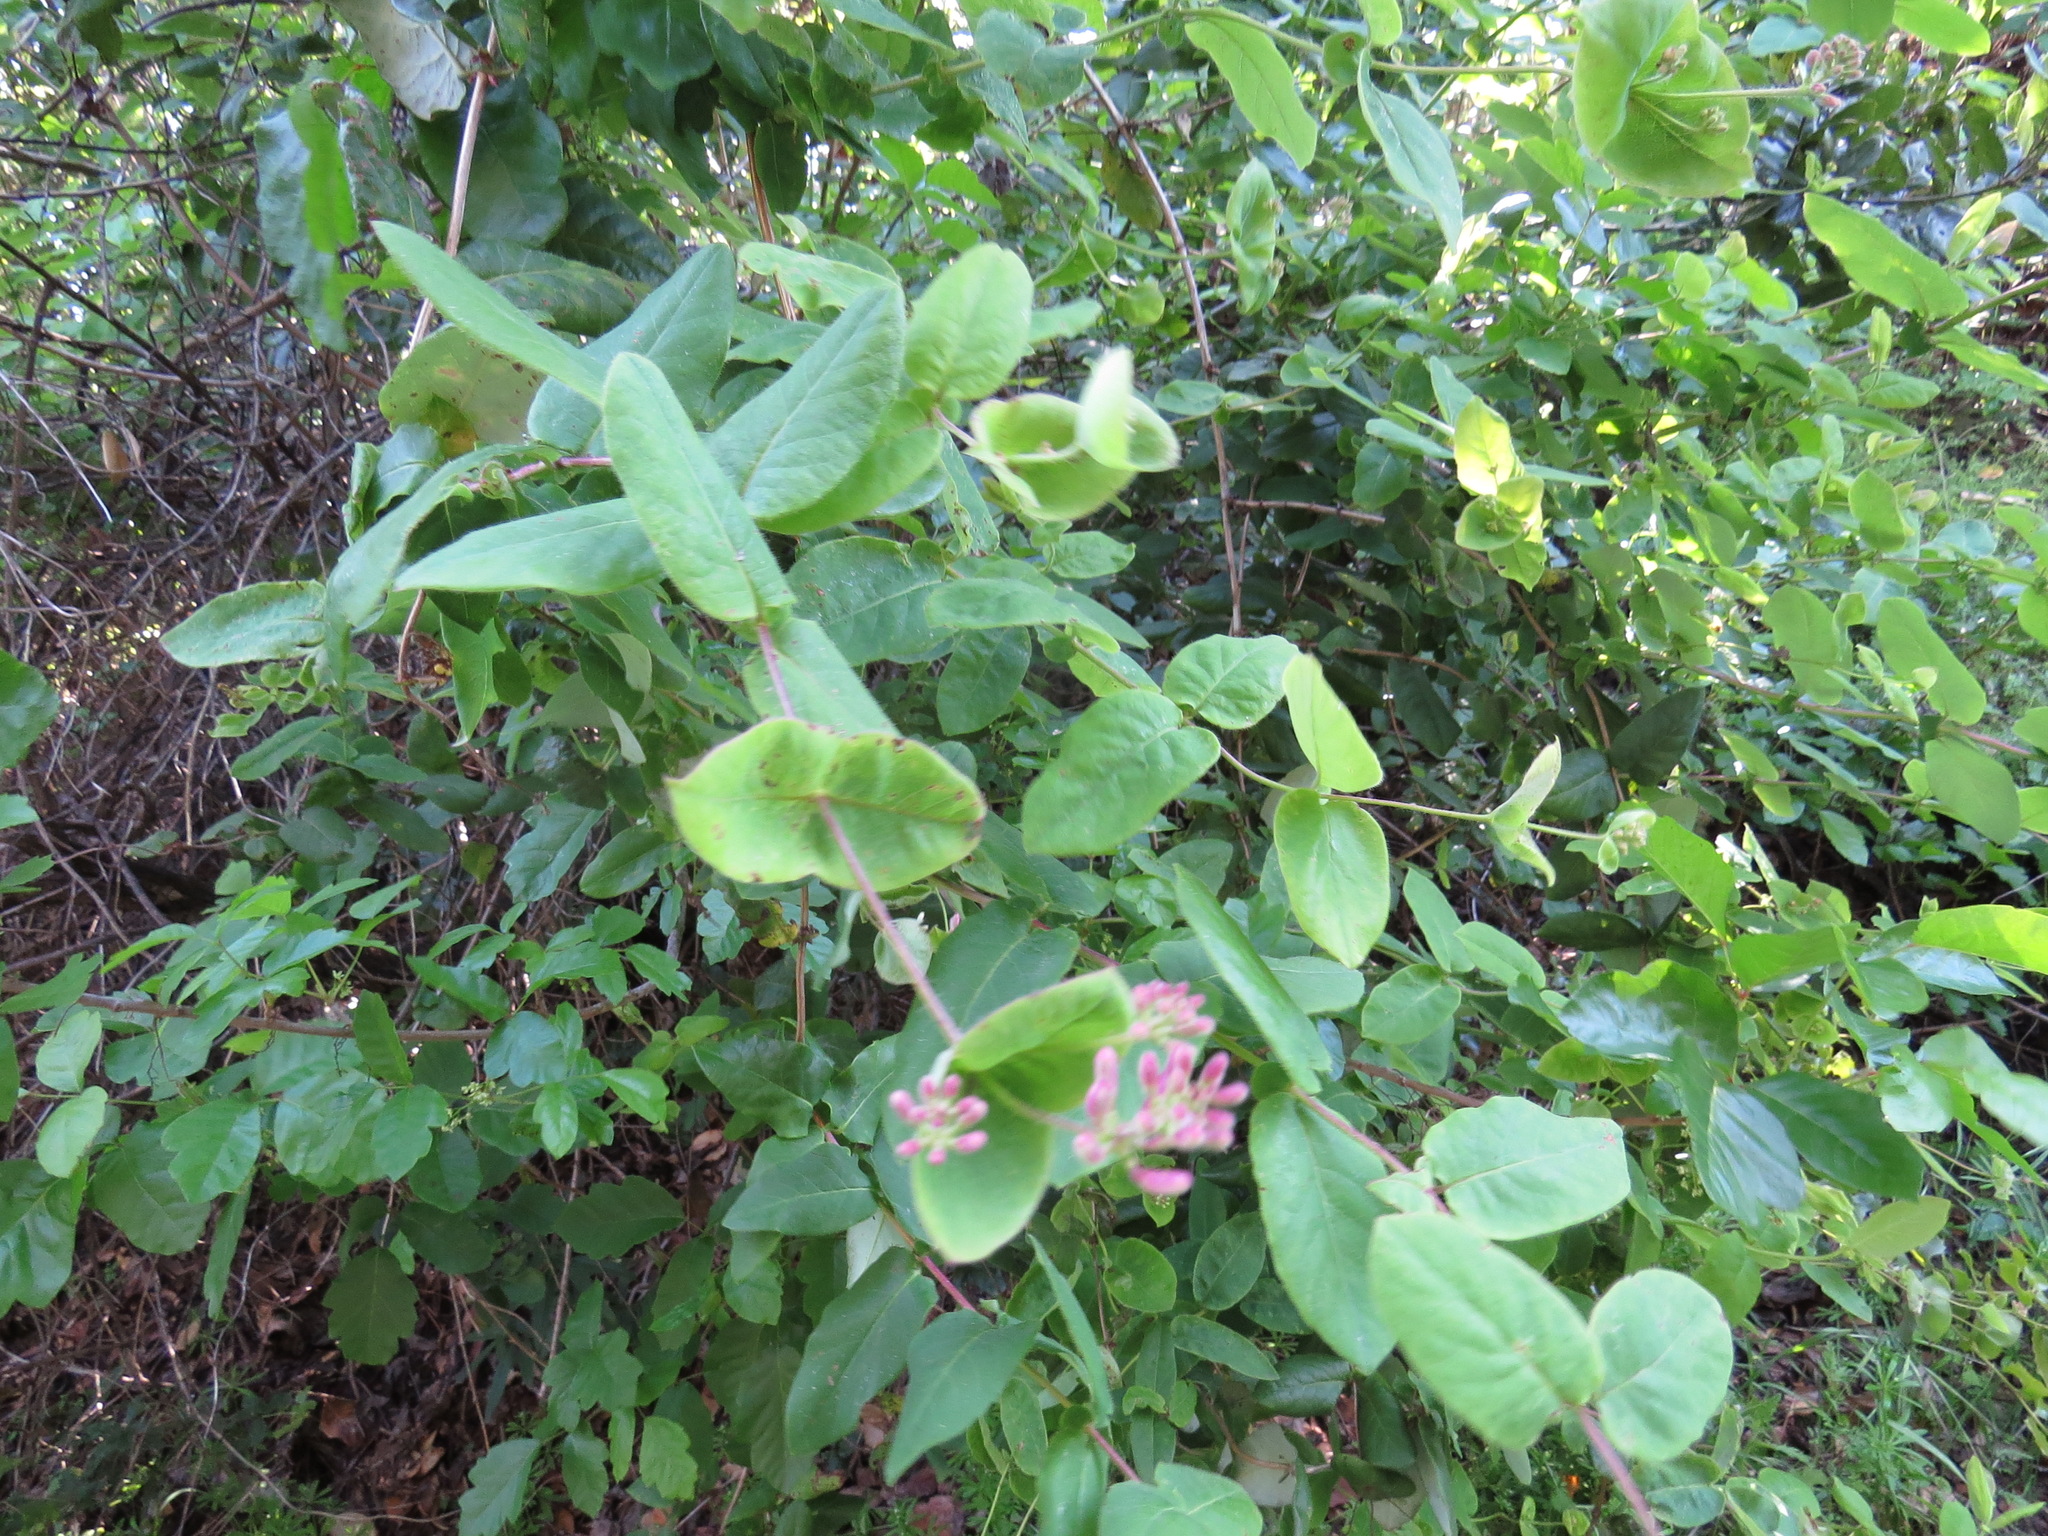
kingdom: Plantae
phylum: Tracheophyta
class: Magnoliopsida
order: Dipsacales
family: Caprifoliaceae
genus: Lonicera
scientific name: Lonicera hispidula
